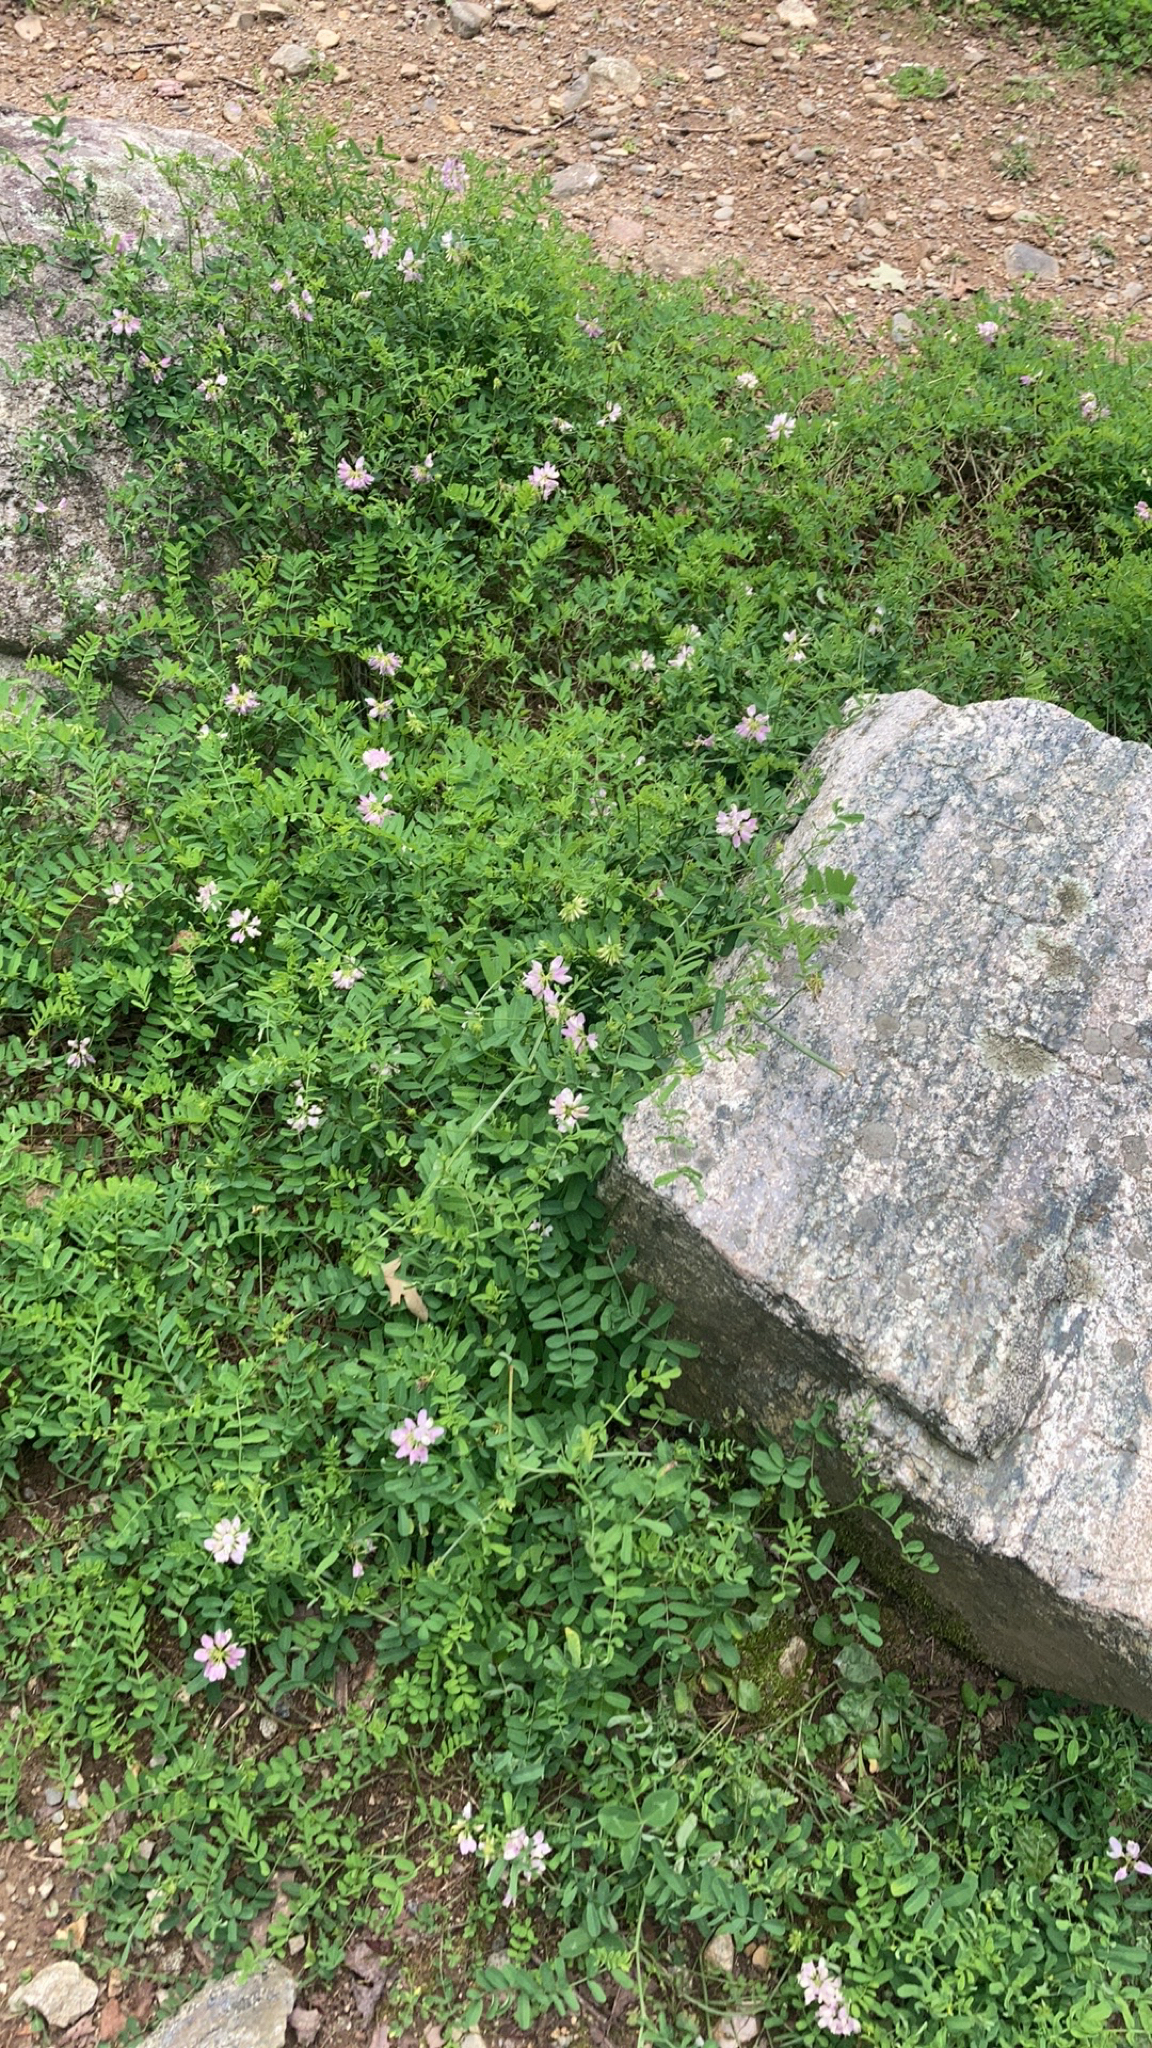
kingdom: Plantae
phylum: Tracheophyta
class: Magnoliopsida
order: Fabales
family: Fabaceae
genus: Coronilla
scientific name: Coronilla varia
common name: Crownvetch
